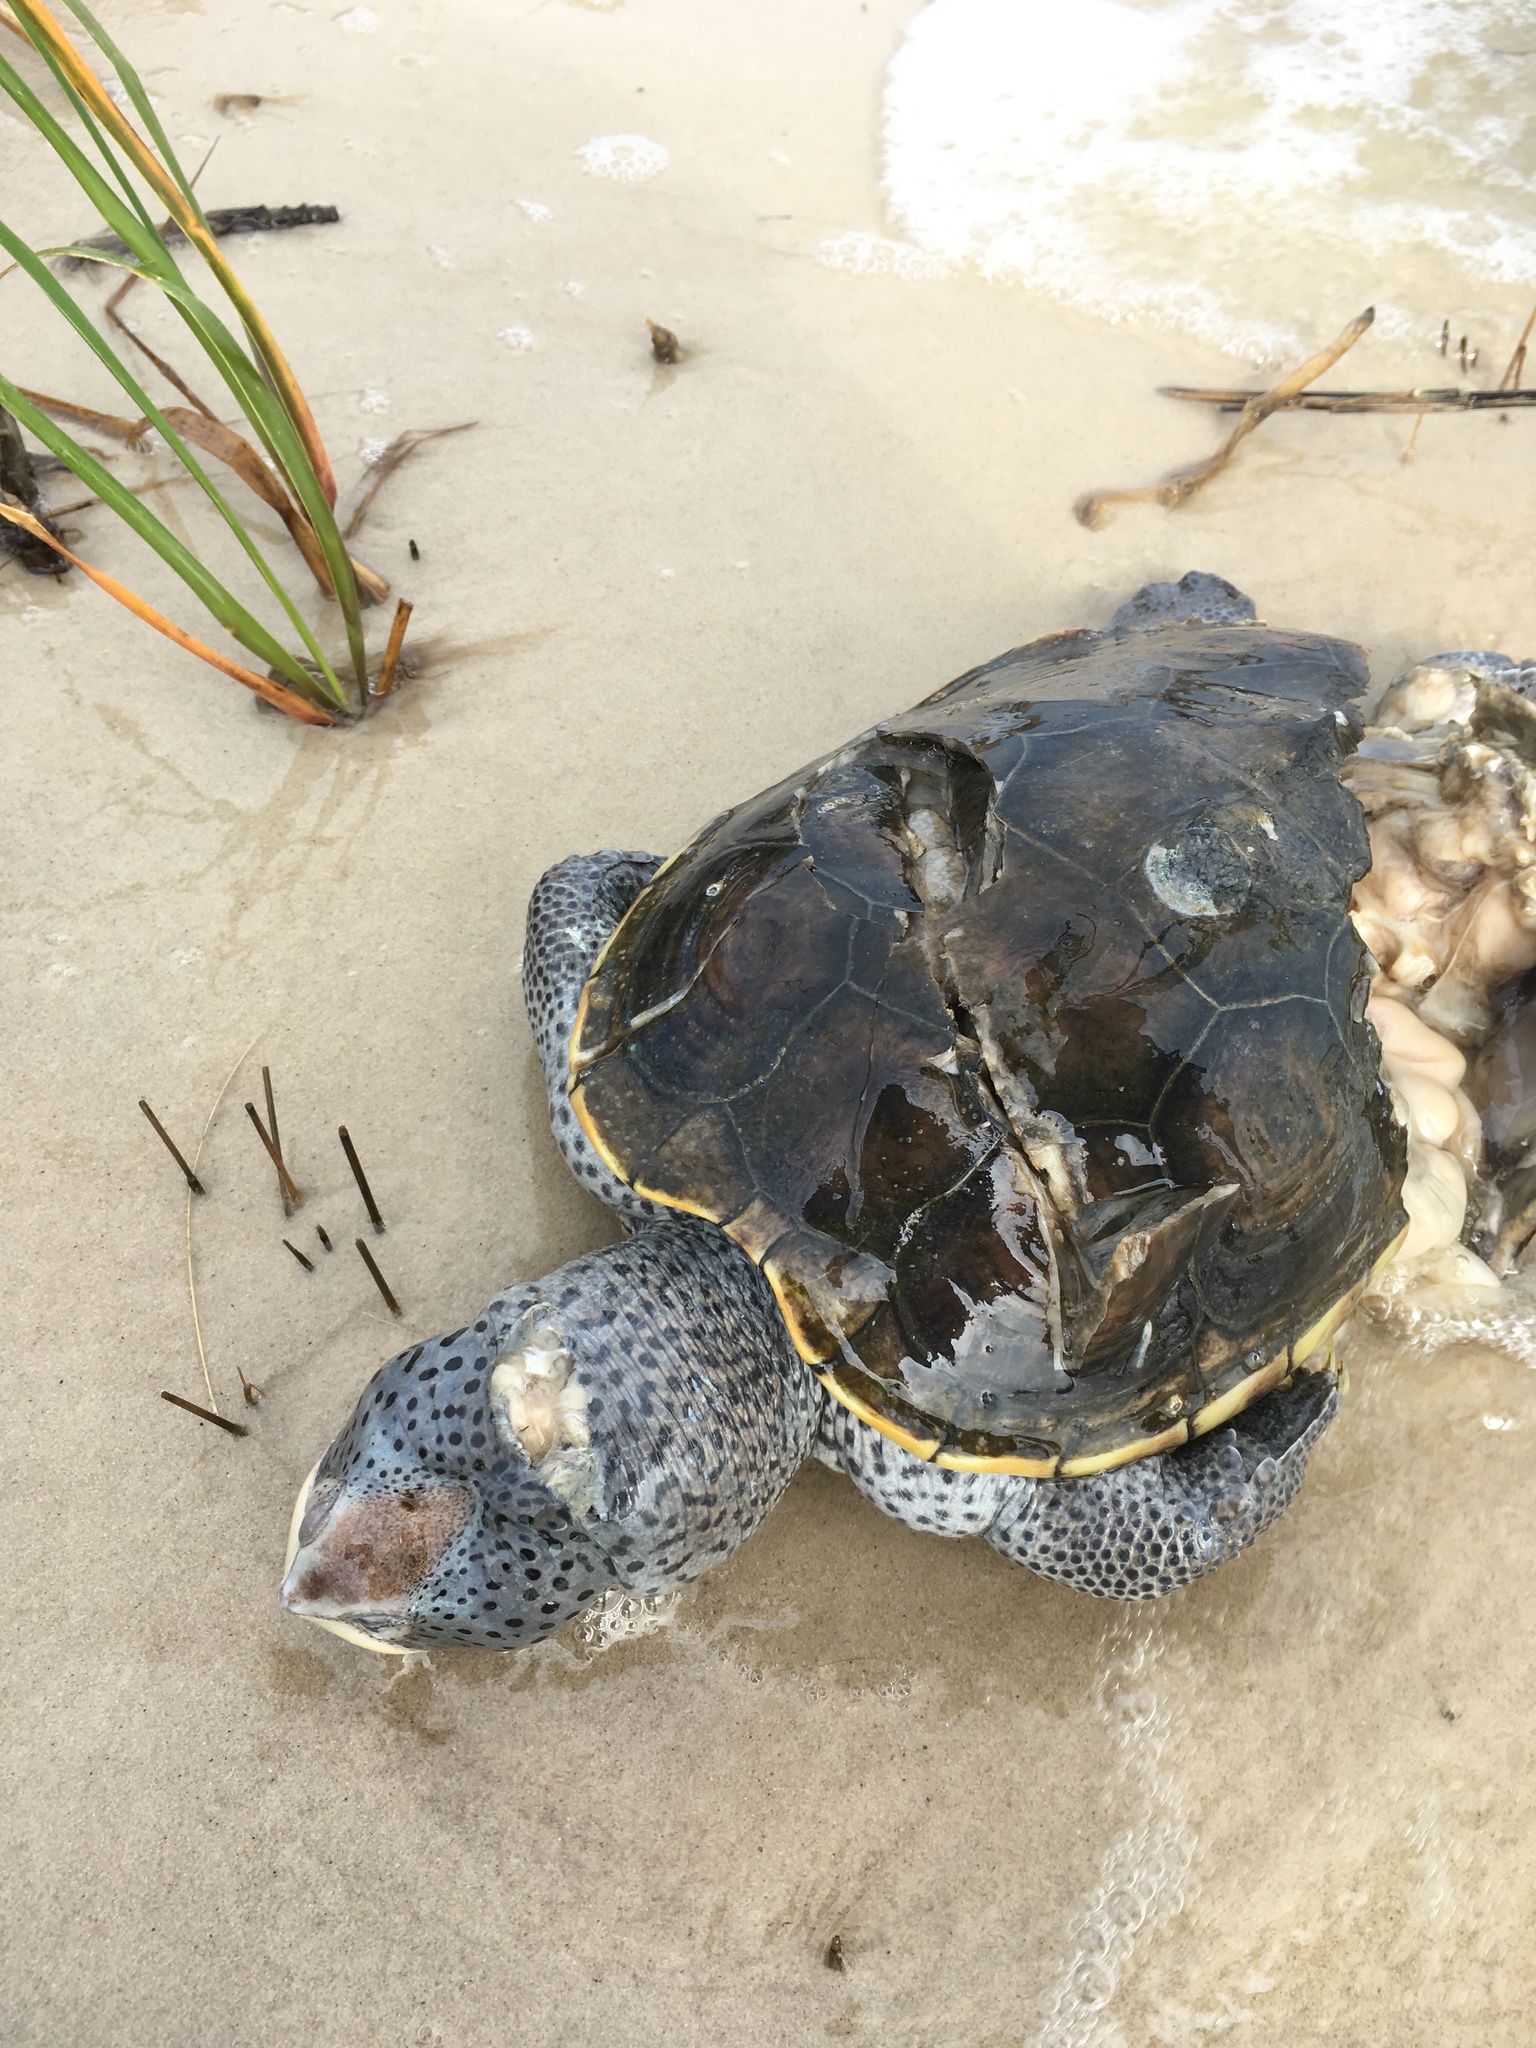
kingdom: Animalia
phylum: Chordata
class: Testudines
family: Emydidae
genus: Malaclemys
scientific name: Malaclemys terrapin
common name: Diamondback terrapin
